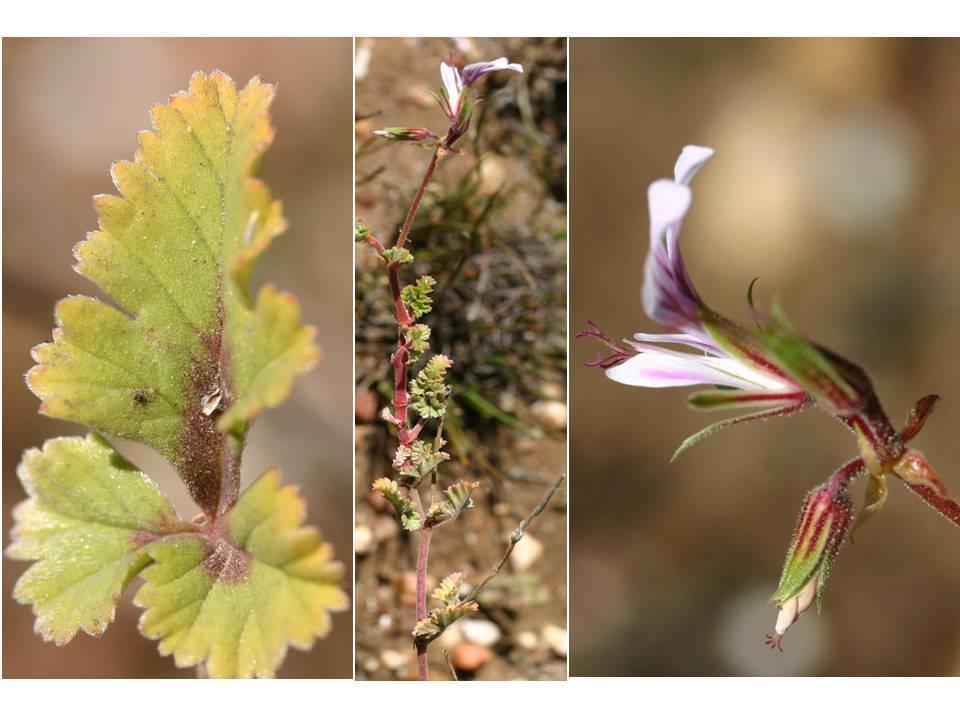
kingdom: Plantae
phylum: Tracheophyta
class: Magnoliopsida
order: Geraniales
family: Geraniaceae
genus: Pelargonium
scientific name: Pelargonium candicans
